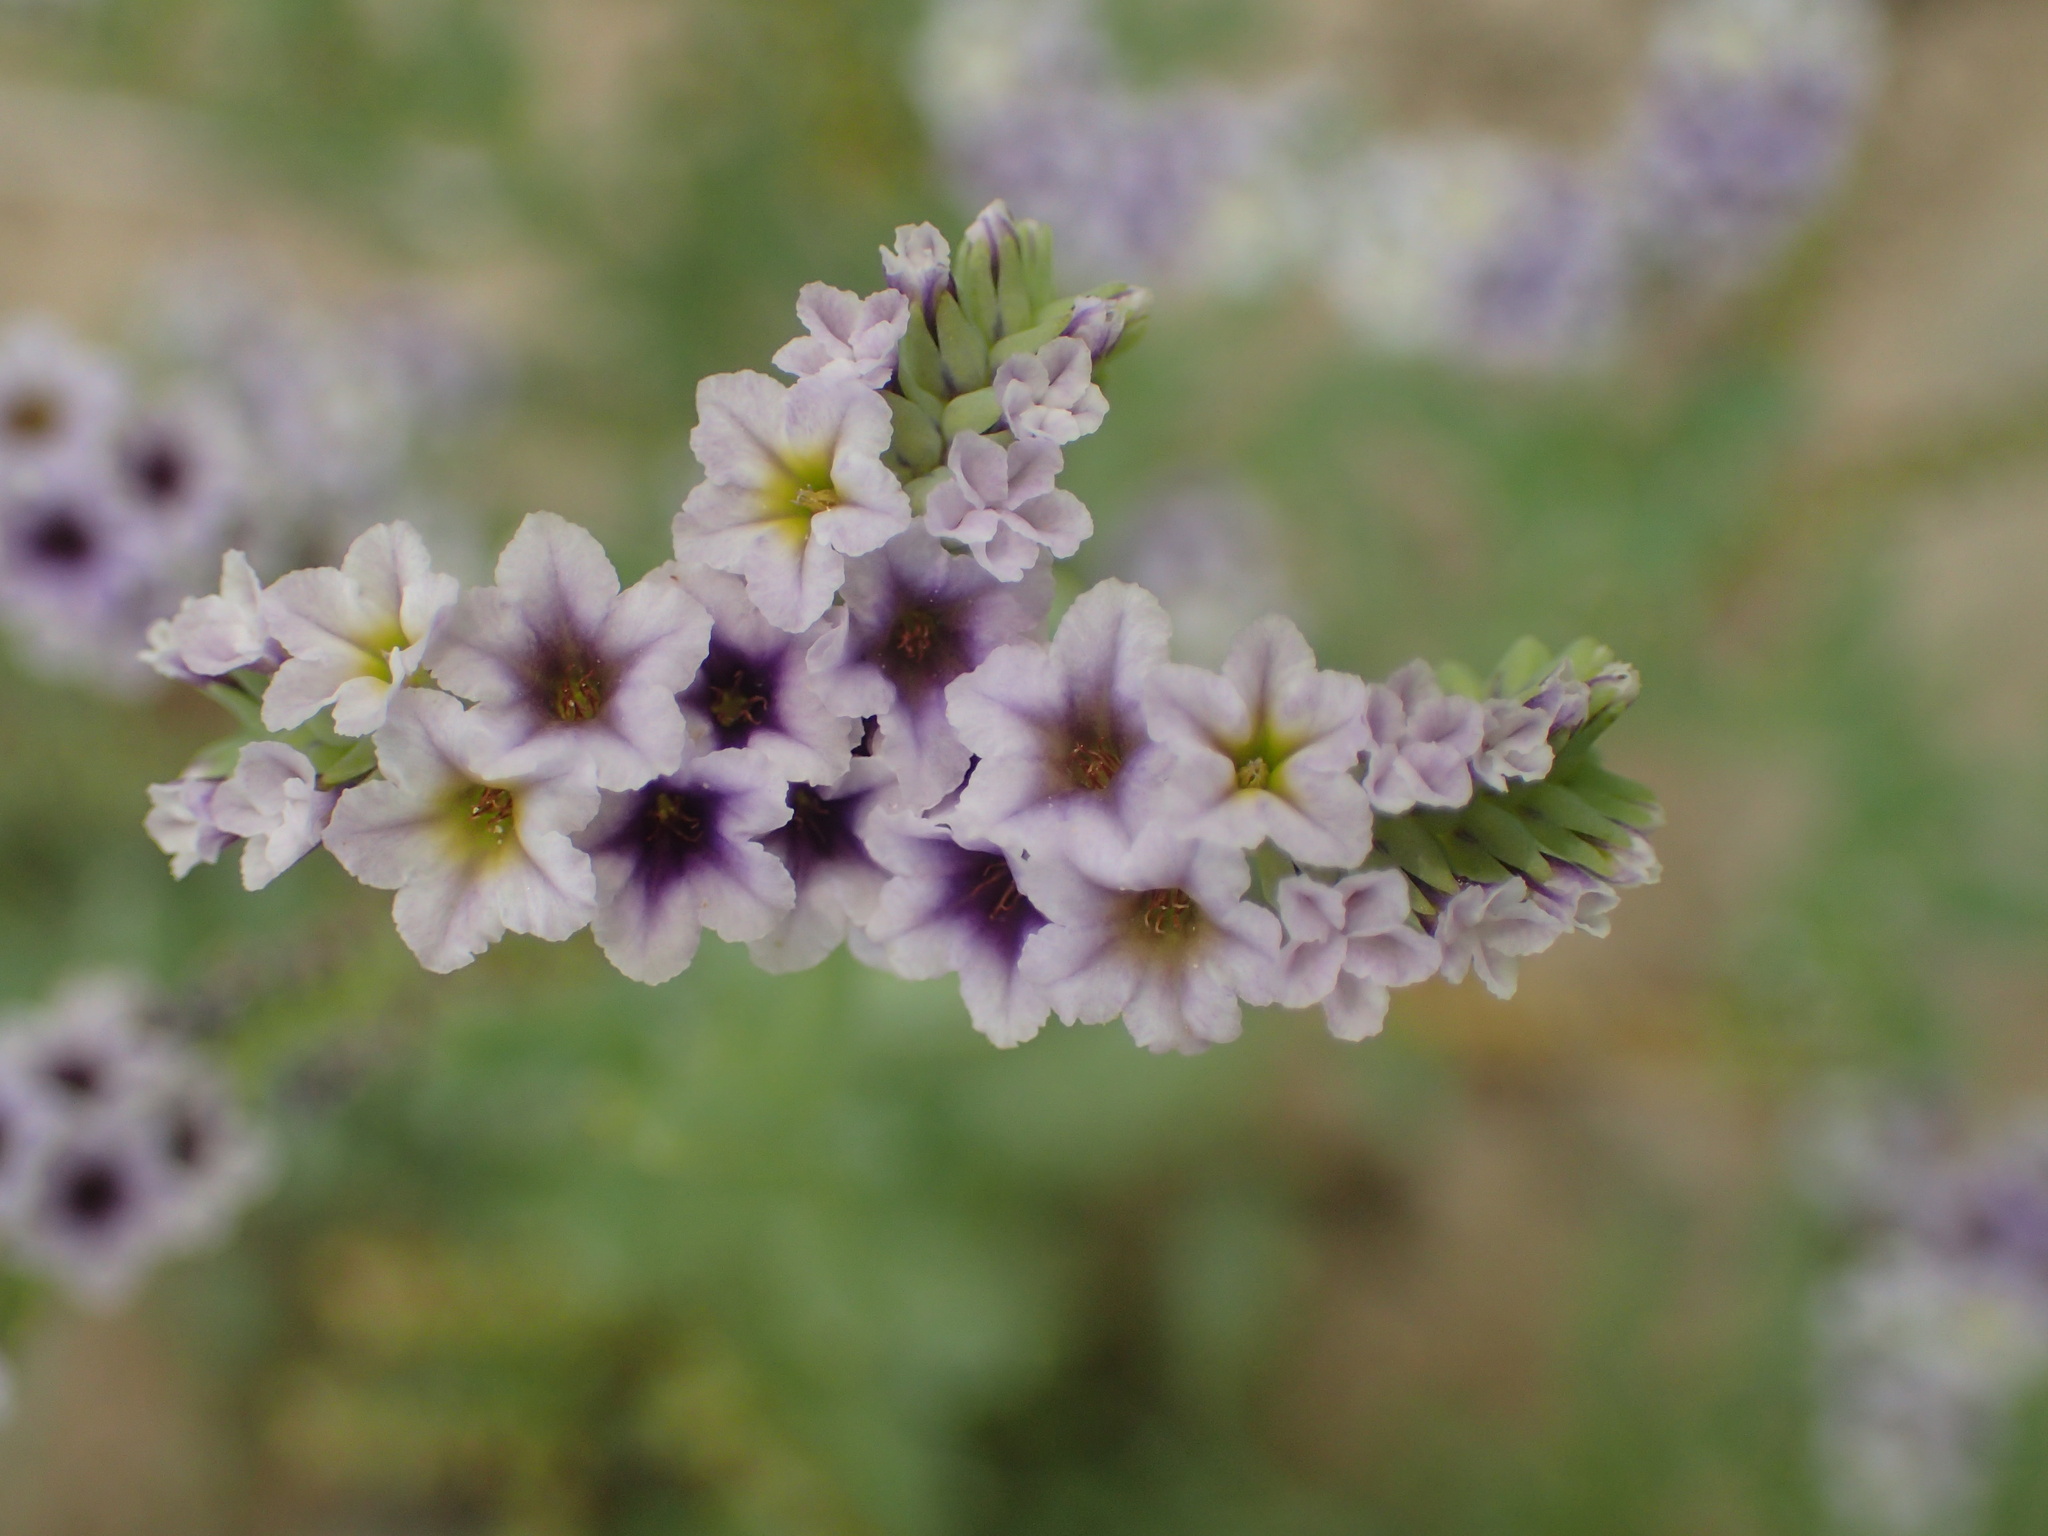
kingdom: Plantae
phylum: Tracheophyta
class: Magnoliopsida
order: Boraginales
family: Heliotropiaceae
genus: Heliotropium
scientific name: Heliotropium curassavicum
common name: Seaside heliotrope
